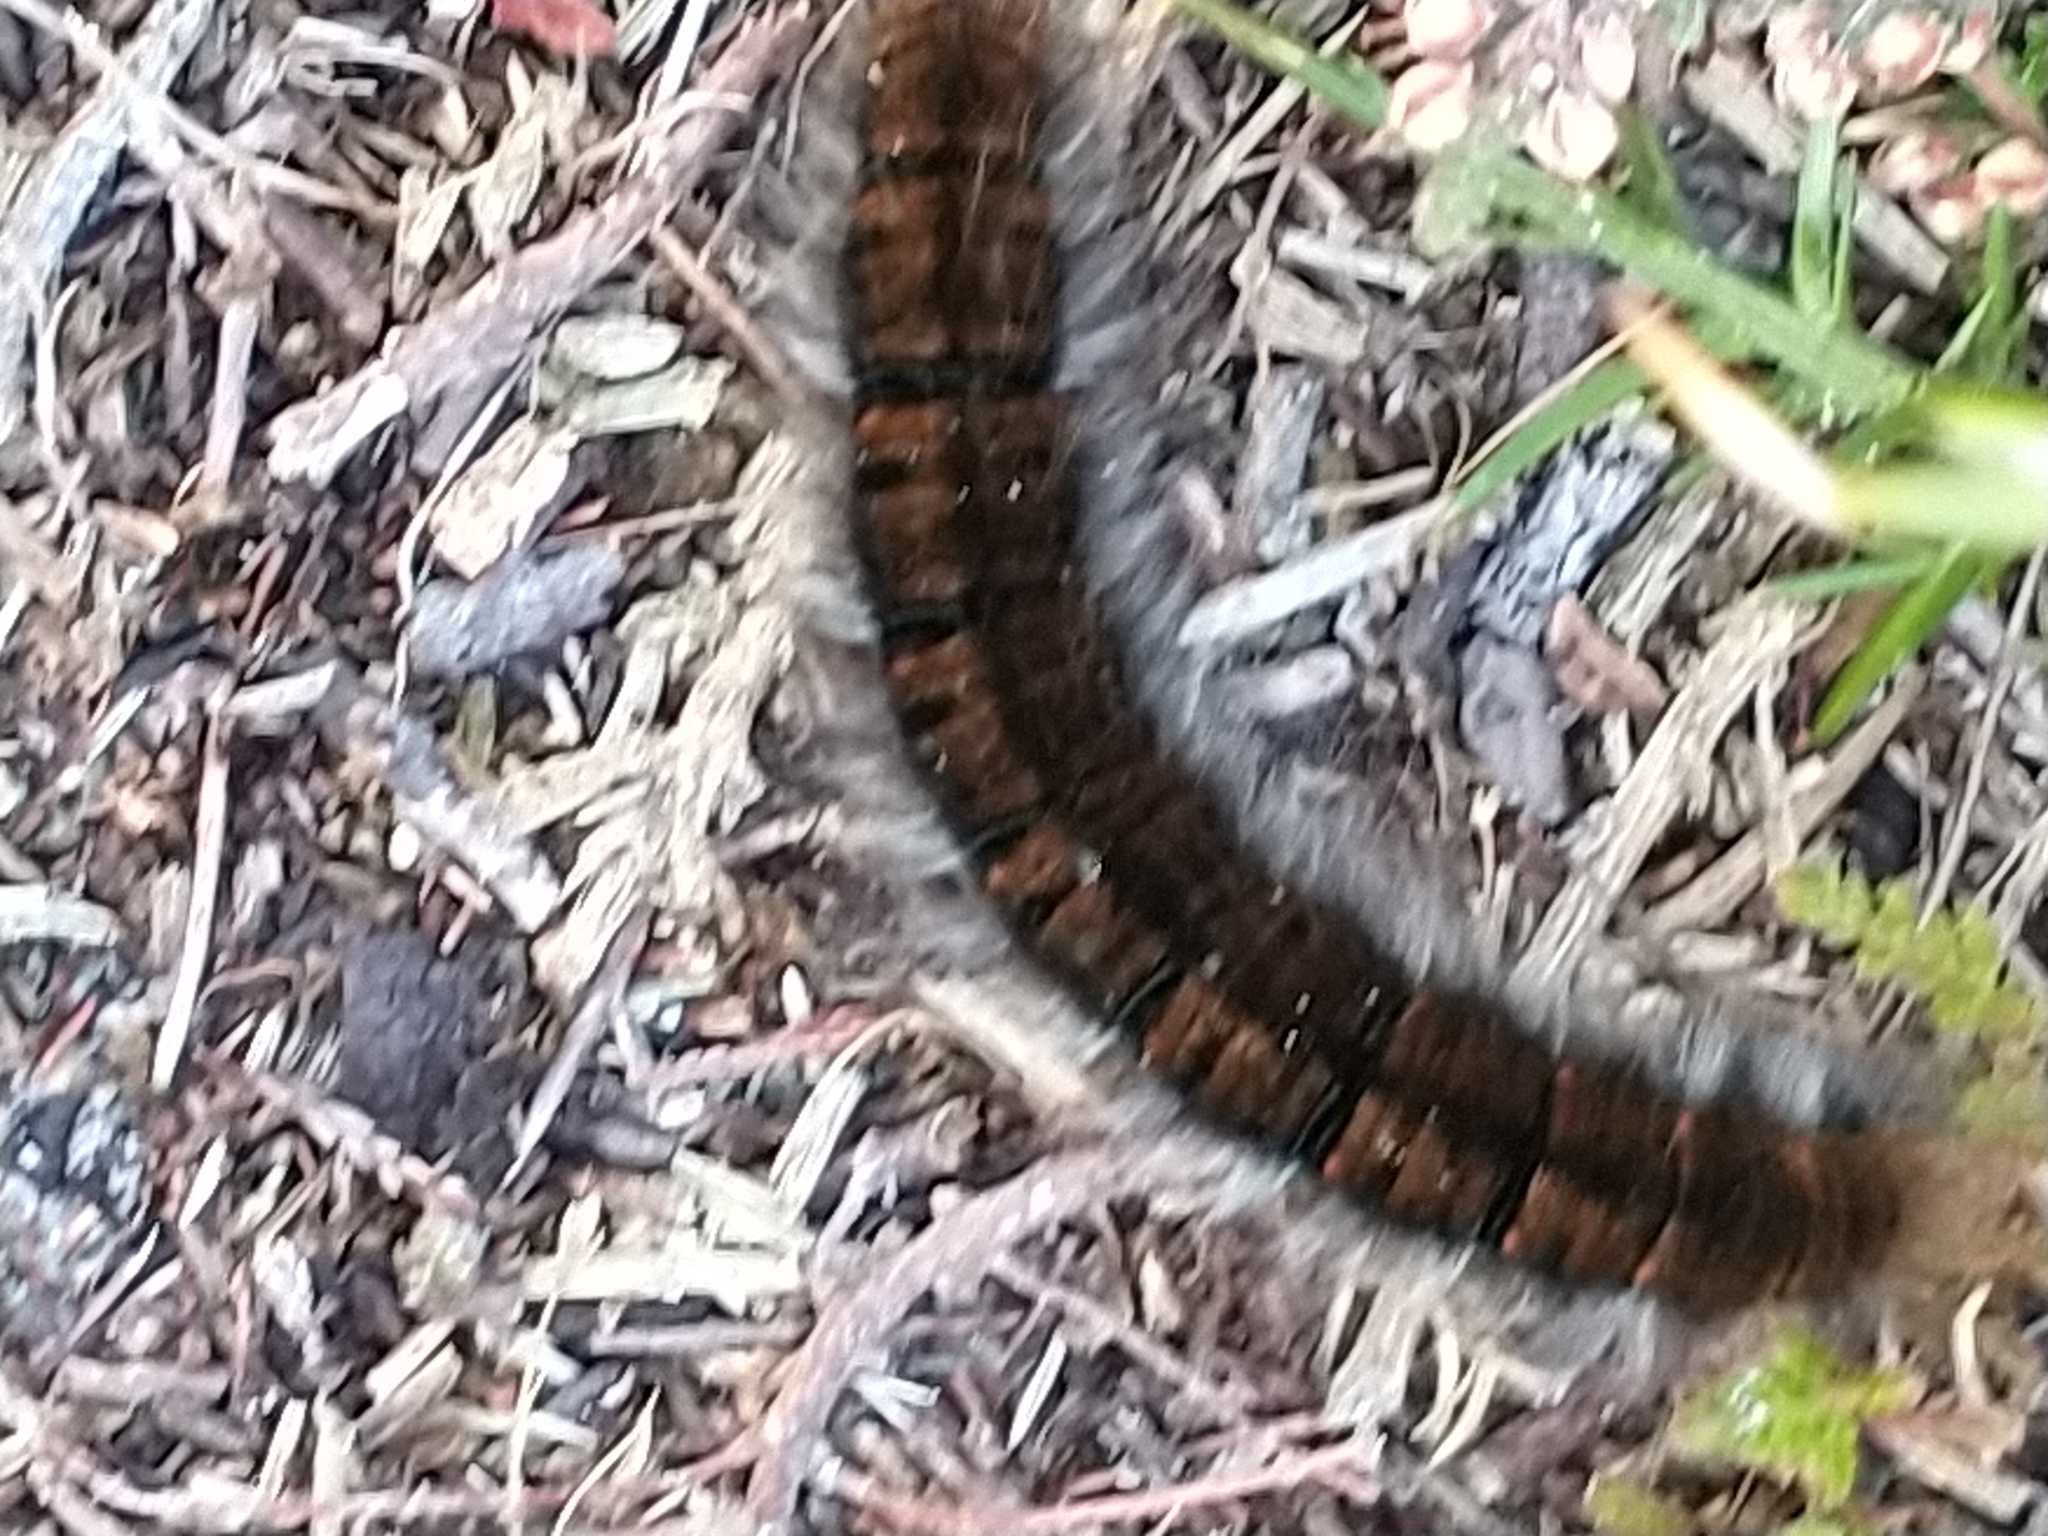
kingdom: Animalia
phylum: Arthropoda
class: Insecta
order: Lepidoptera
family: Lasiocampidae
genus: Macrothylacia
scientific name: Macrothylacia rubi
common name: Fox moth
